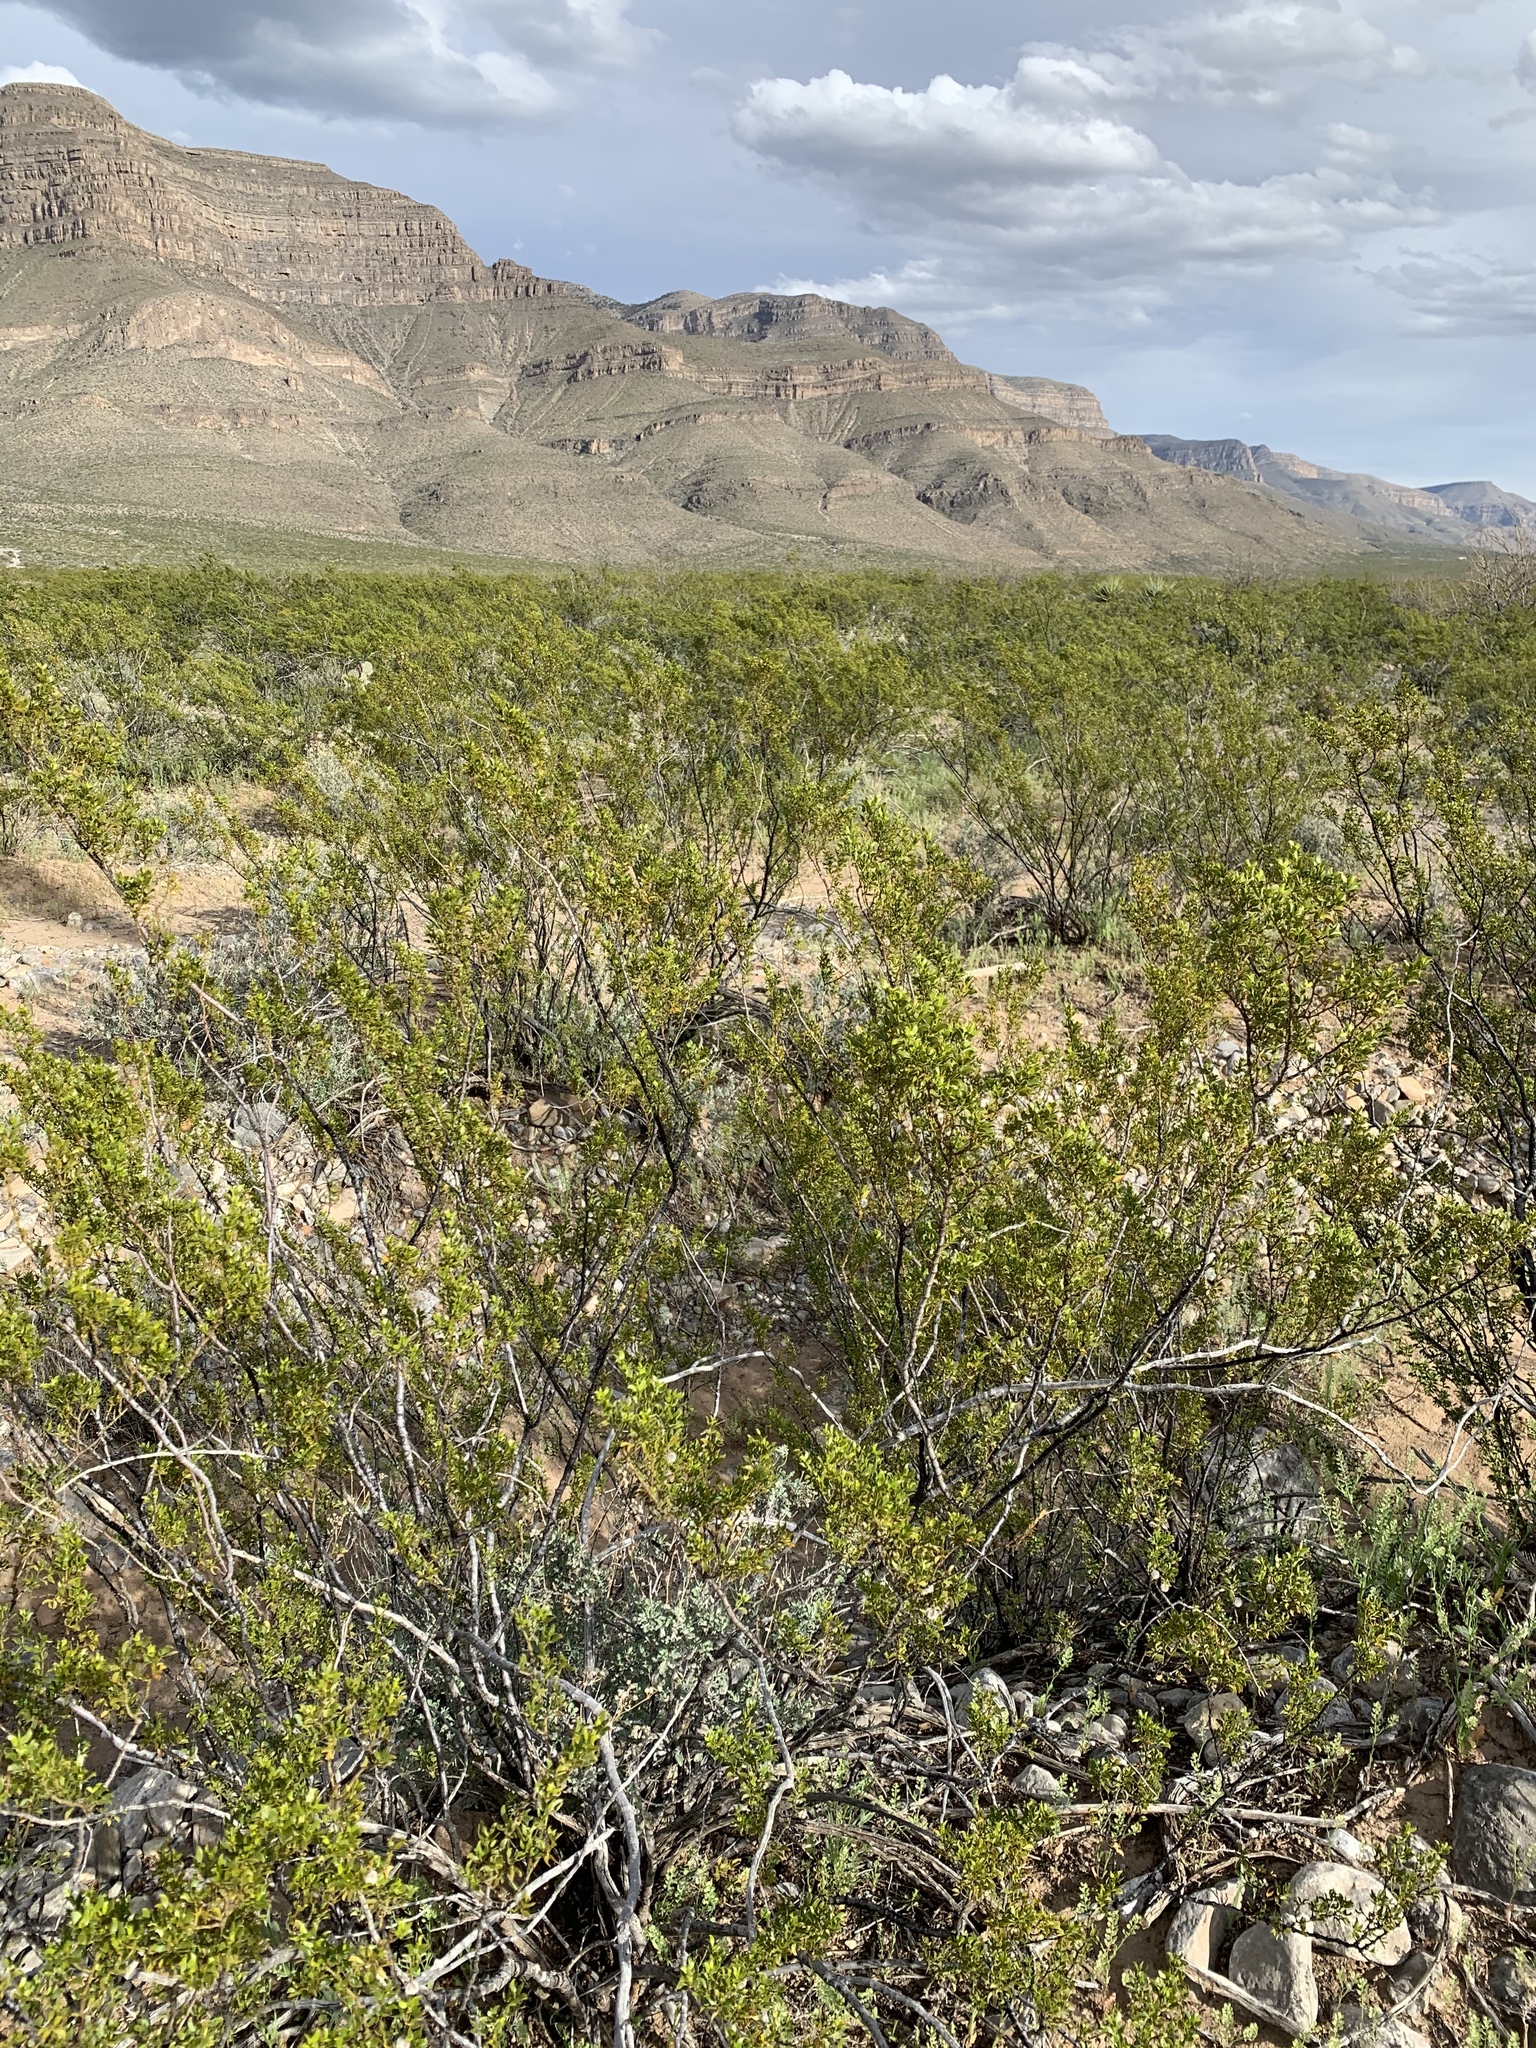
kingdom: Plantae
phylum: Tracheophyta
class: Magnoliopsida
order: Zygophyllales
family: Zygophyllaceae
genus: Larrea
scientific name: Larrea tridentata
